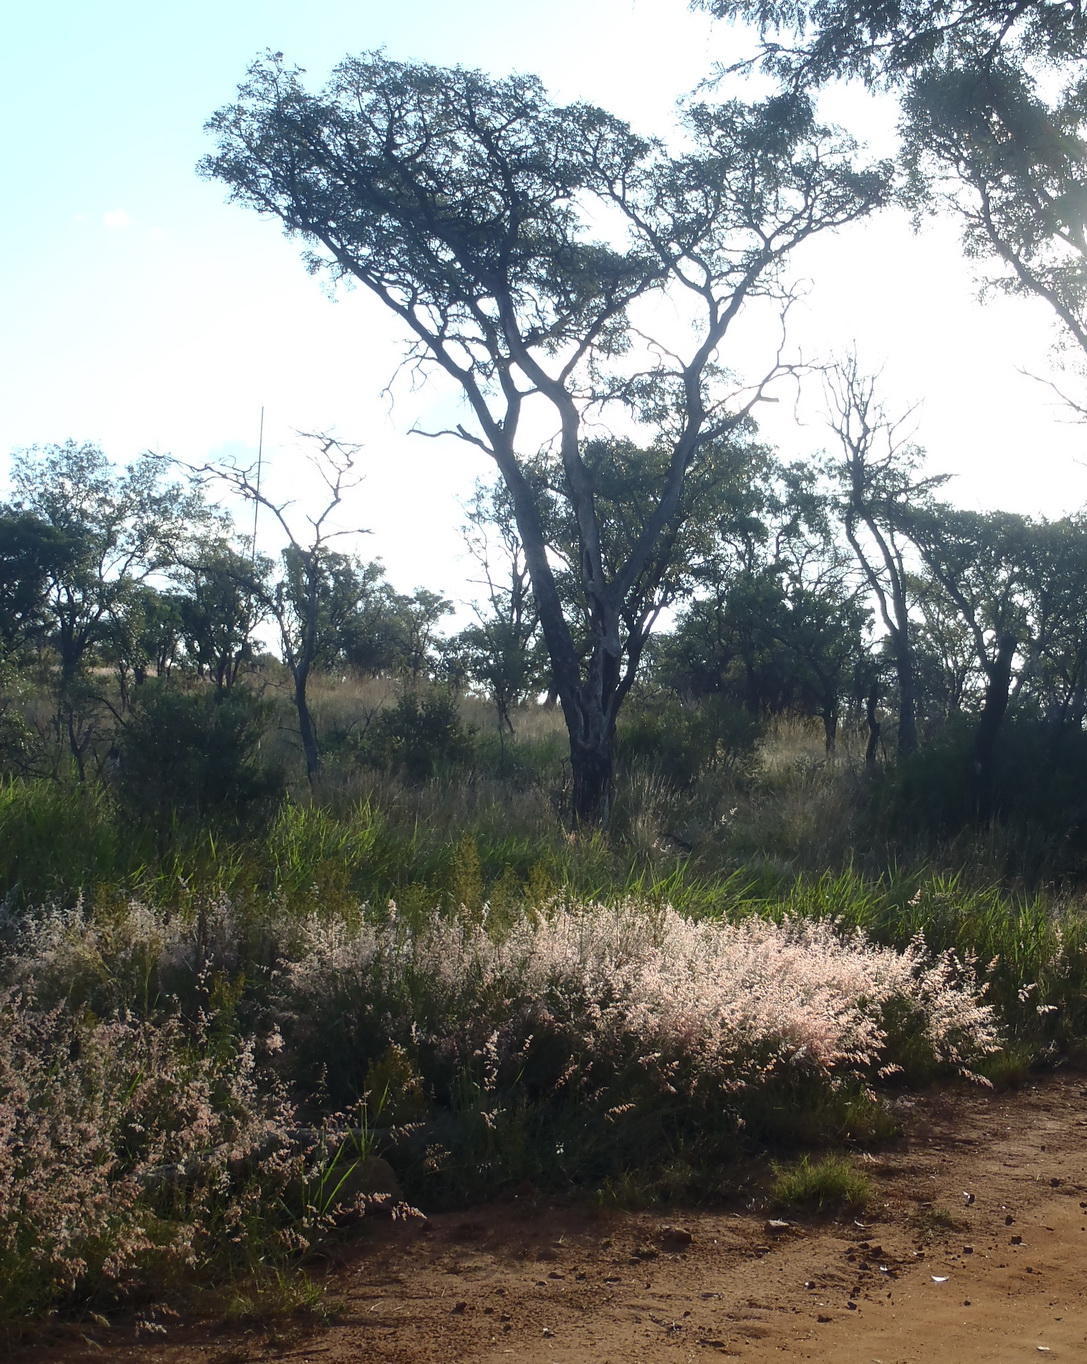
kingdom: Plantae
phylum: Tracheophyta
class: Liliopsida
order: Poales
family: Poaceae
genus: Melinis
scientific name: Melinis repens
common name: Rose natal grass
